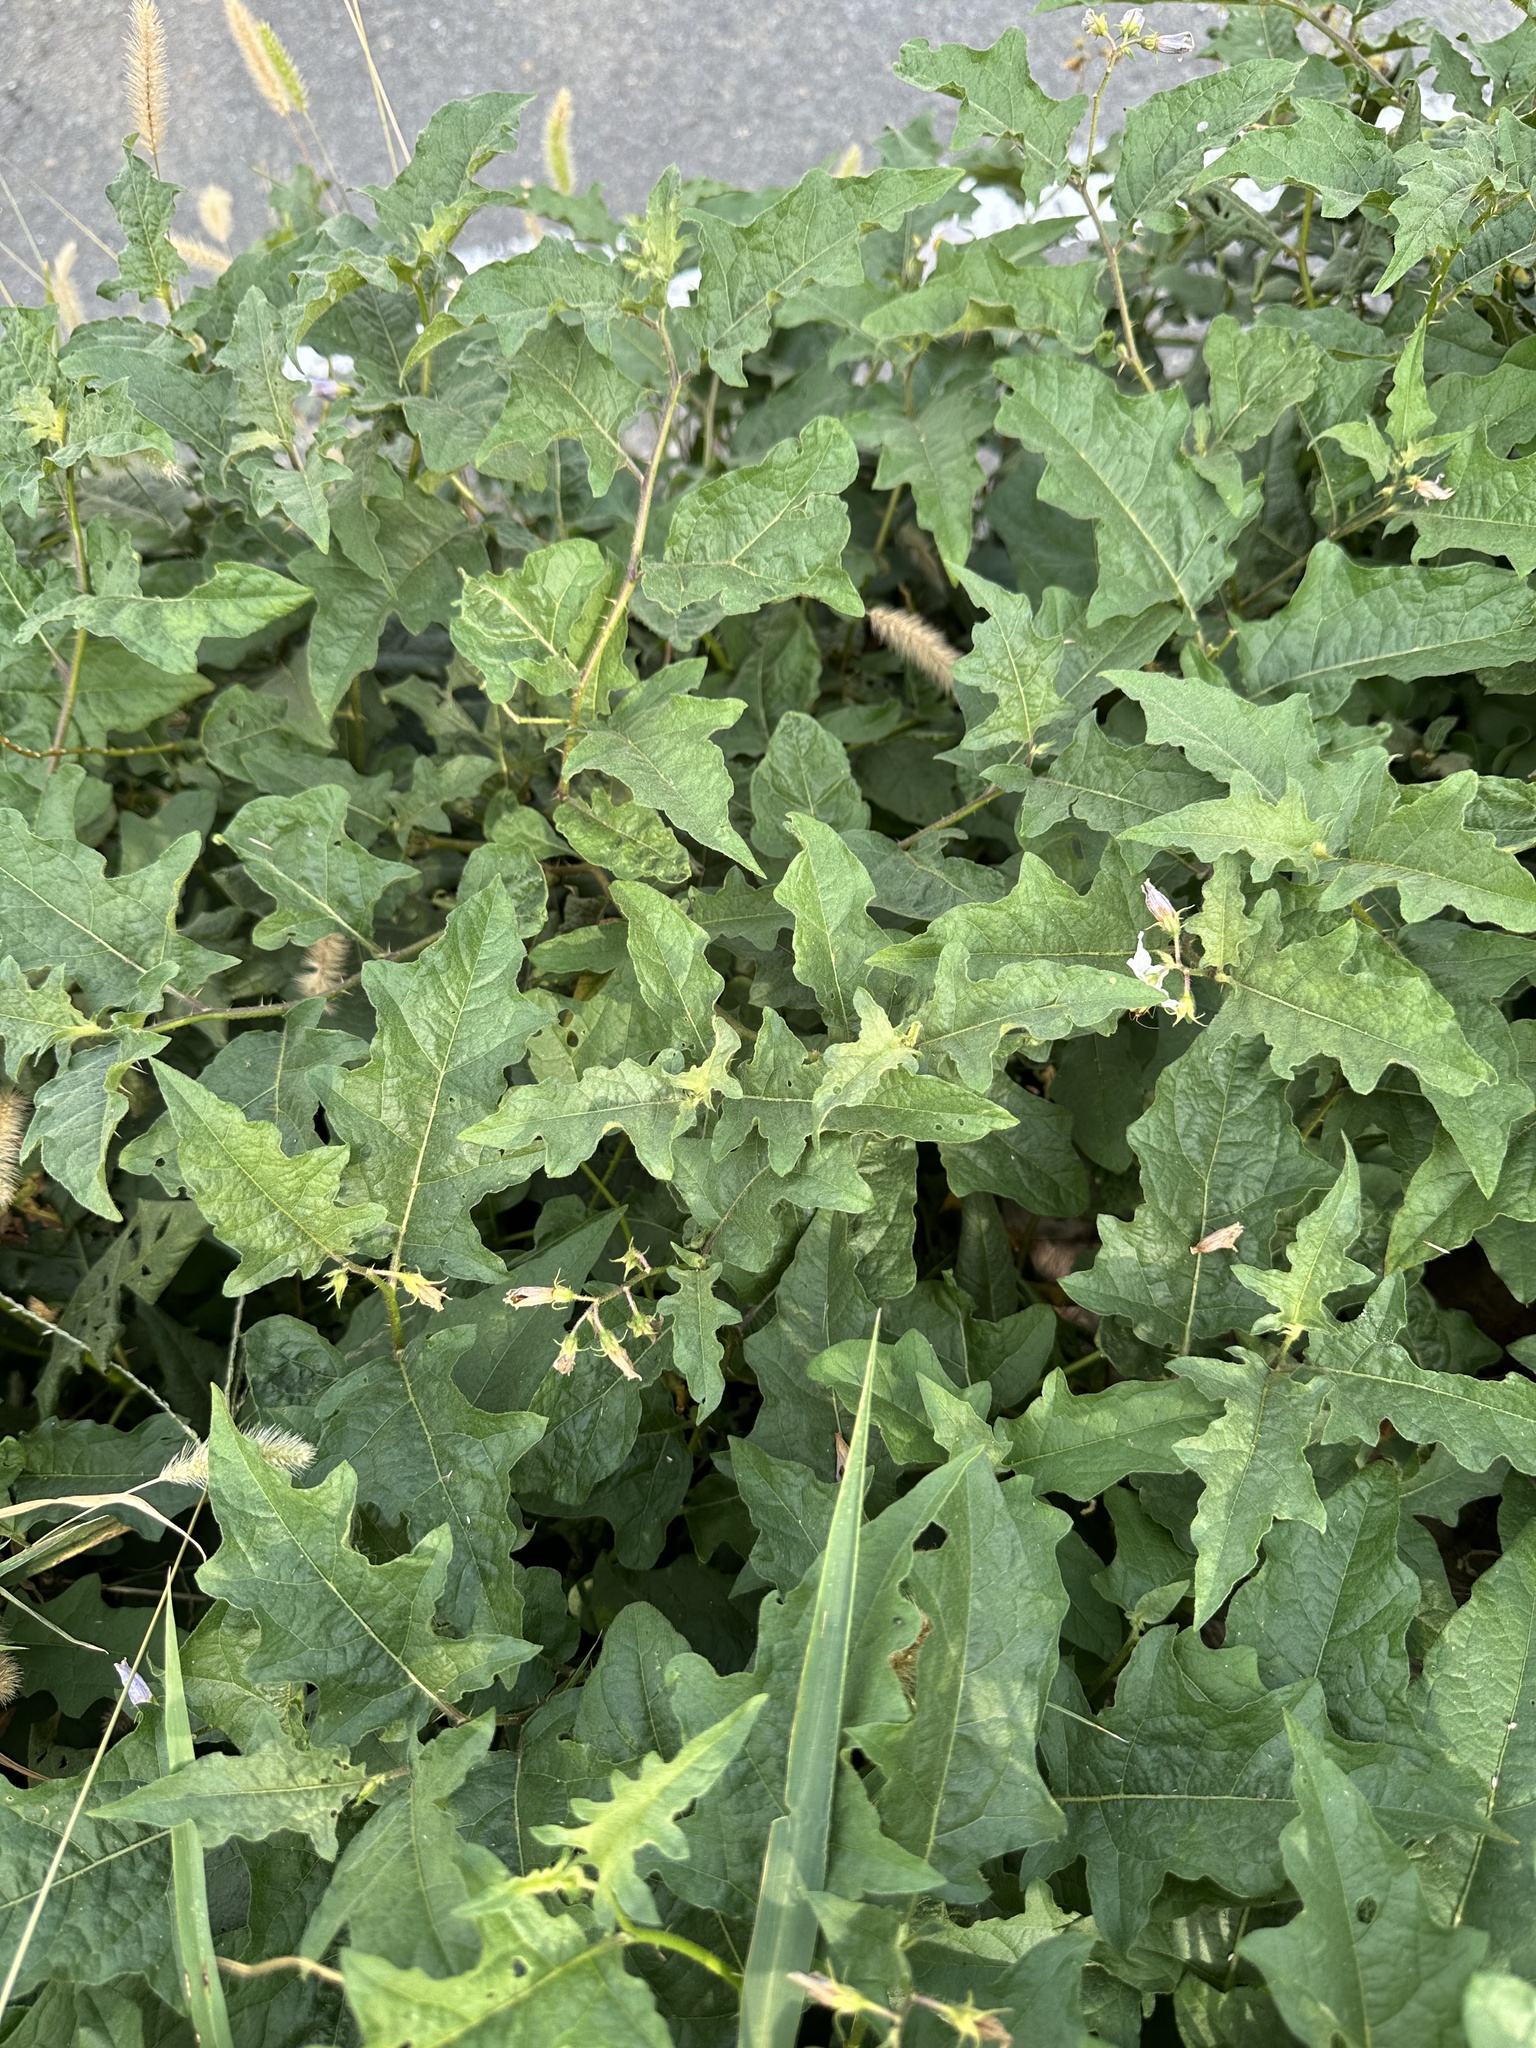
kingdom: Plantae
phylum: Tracheophyta
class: Magnoliopsida
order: Solanales
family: Solanaceae
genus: Solanum
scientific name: Solanum carolinense
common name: Horse-nettle
